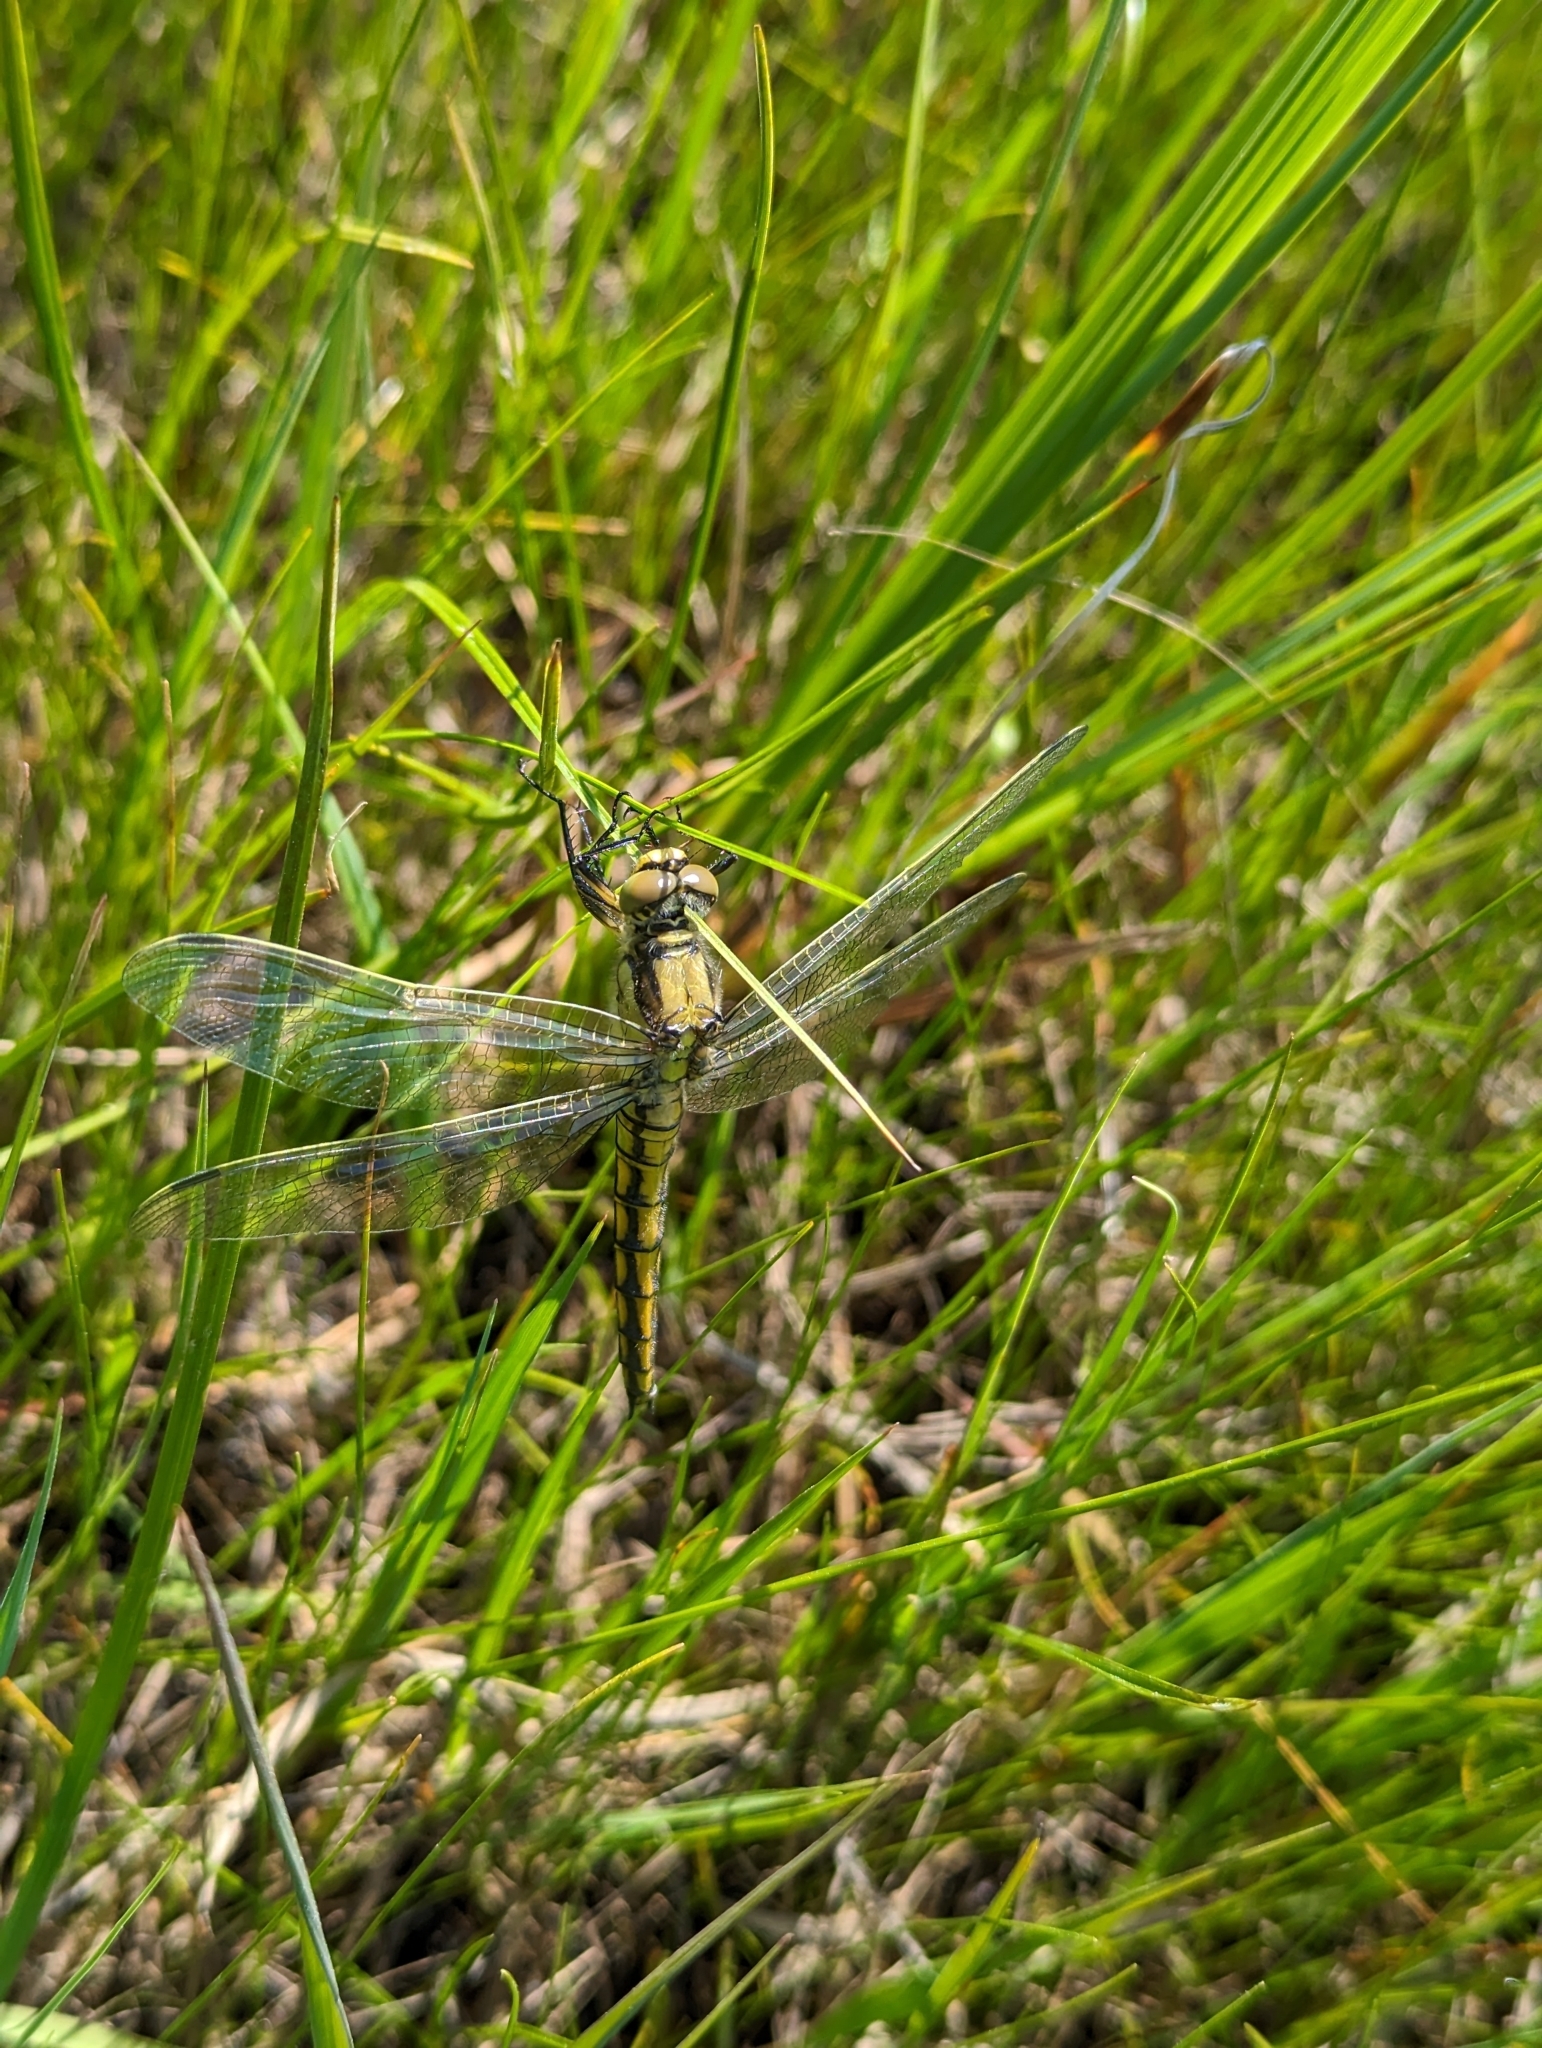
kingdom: Animalia
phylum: Arthropoda
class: Insecta
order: Odonata
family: Libellulidae
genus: Orthetrum
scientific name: Orthetrum cancellatum
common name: Black-tailed skimmer
